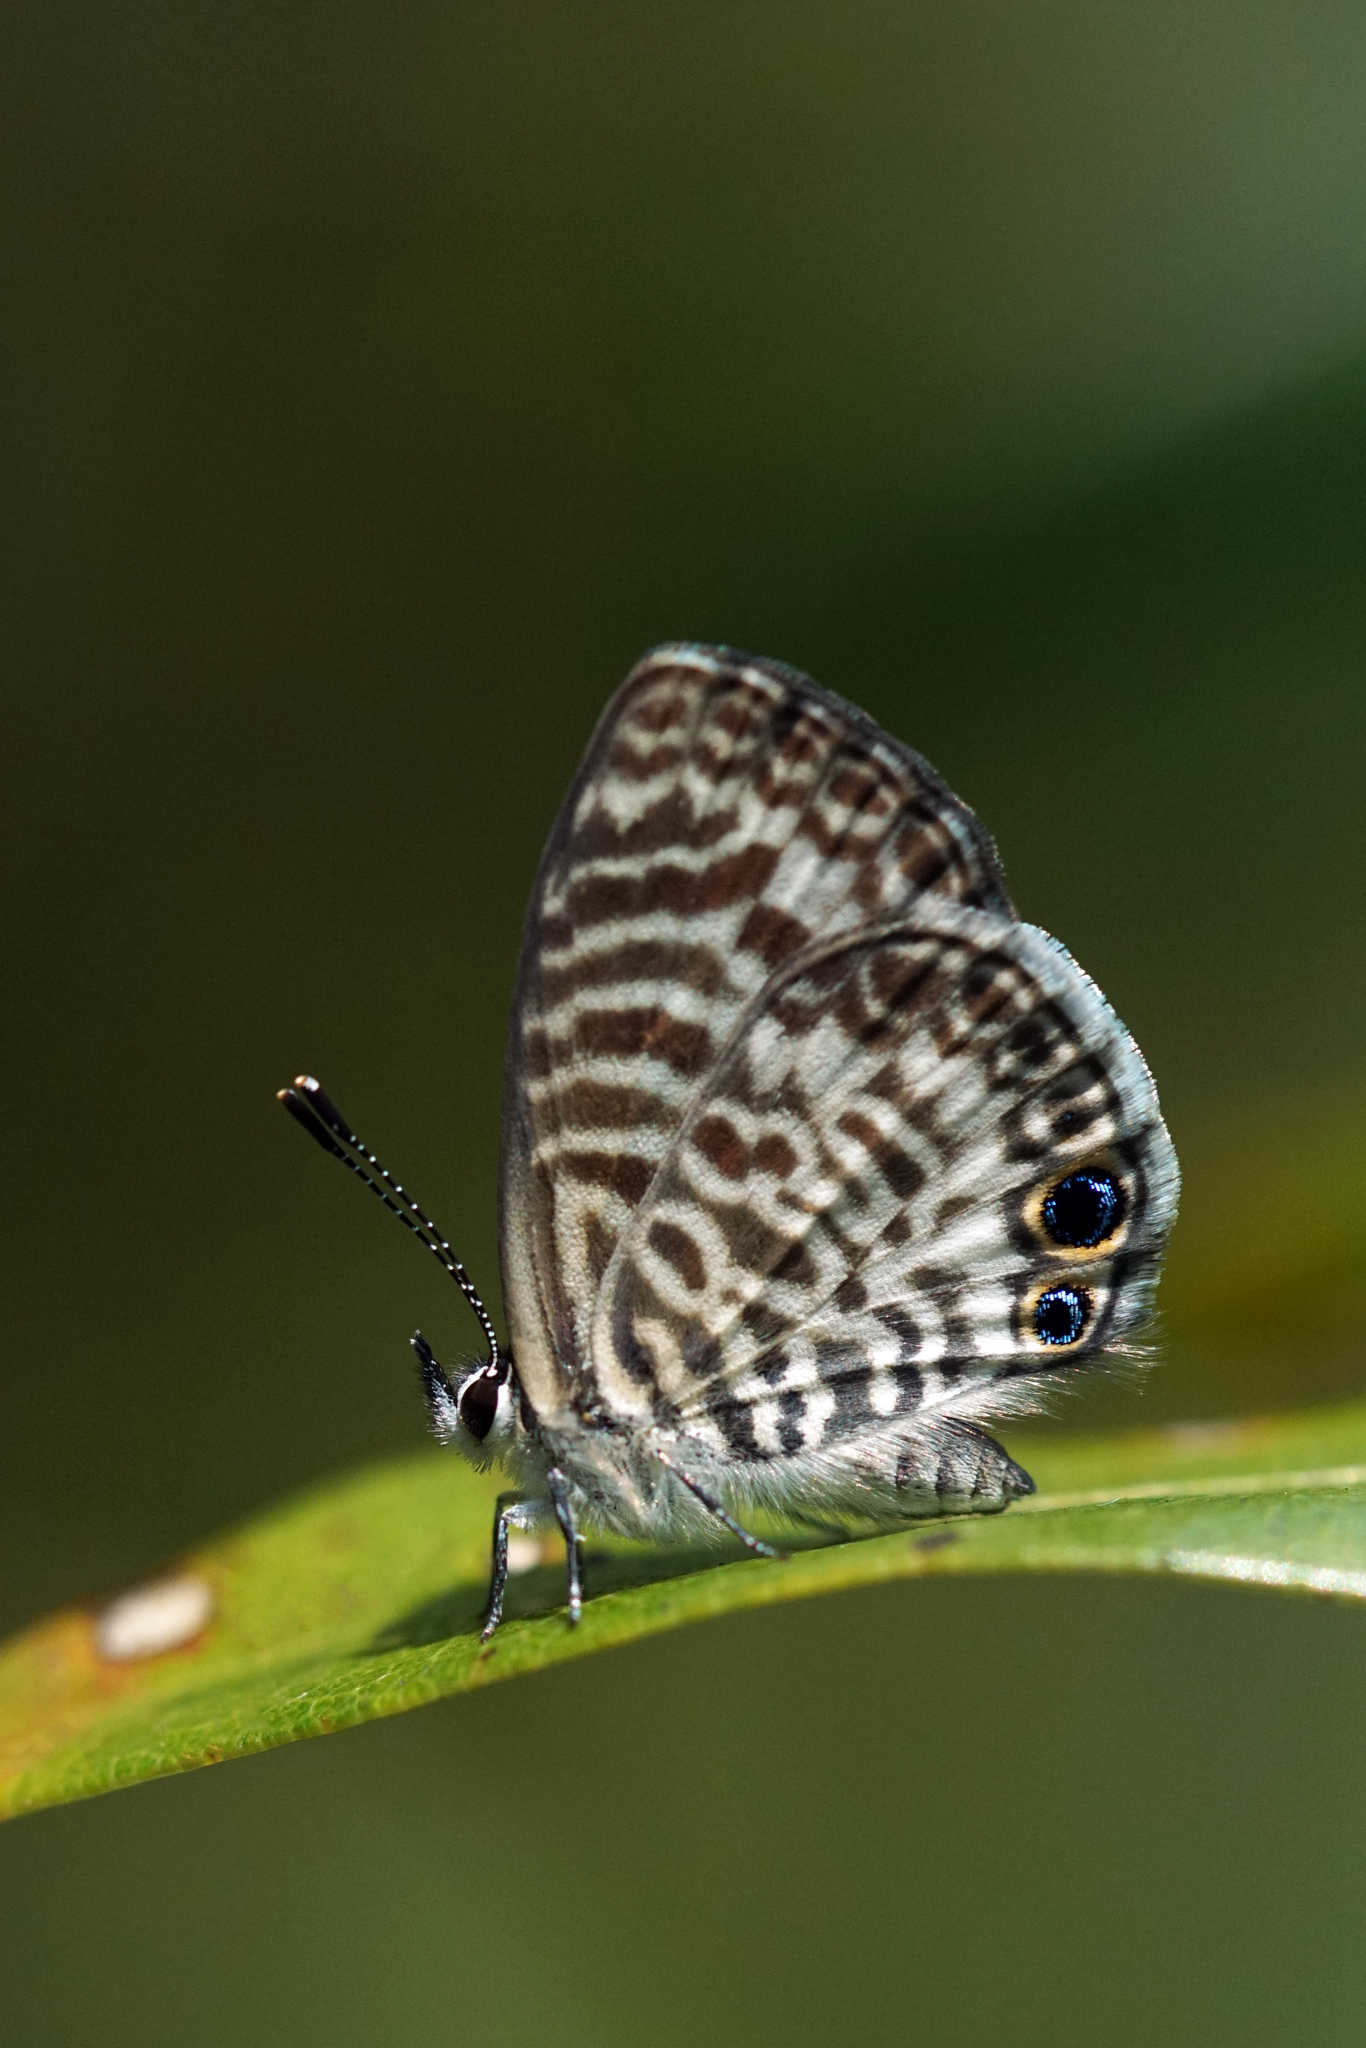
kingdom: Animalia
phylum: Arthropoda
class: Insecta
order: Lepidoptera
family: Lycaenidae
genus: Leptotes
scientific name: Leptotes cassius
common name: Cassius blue
